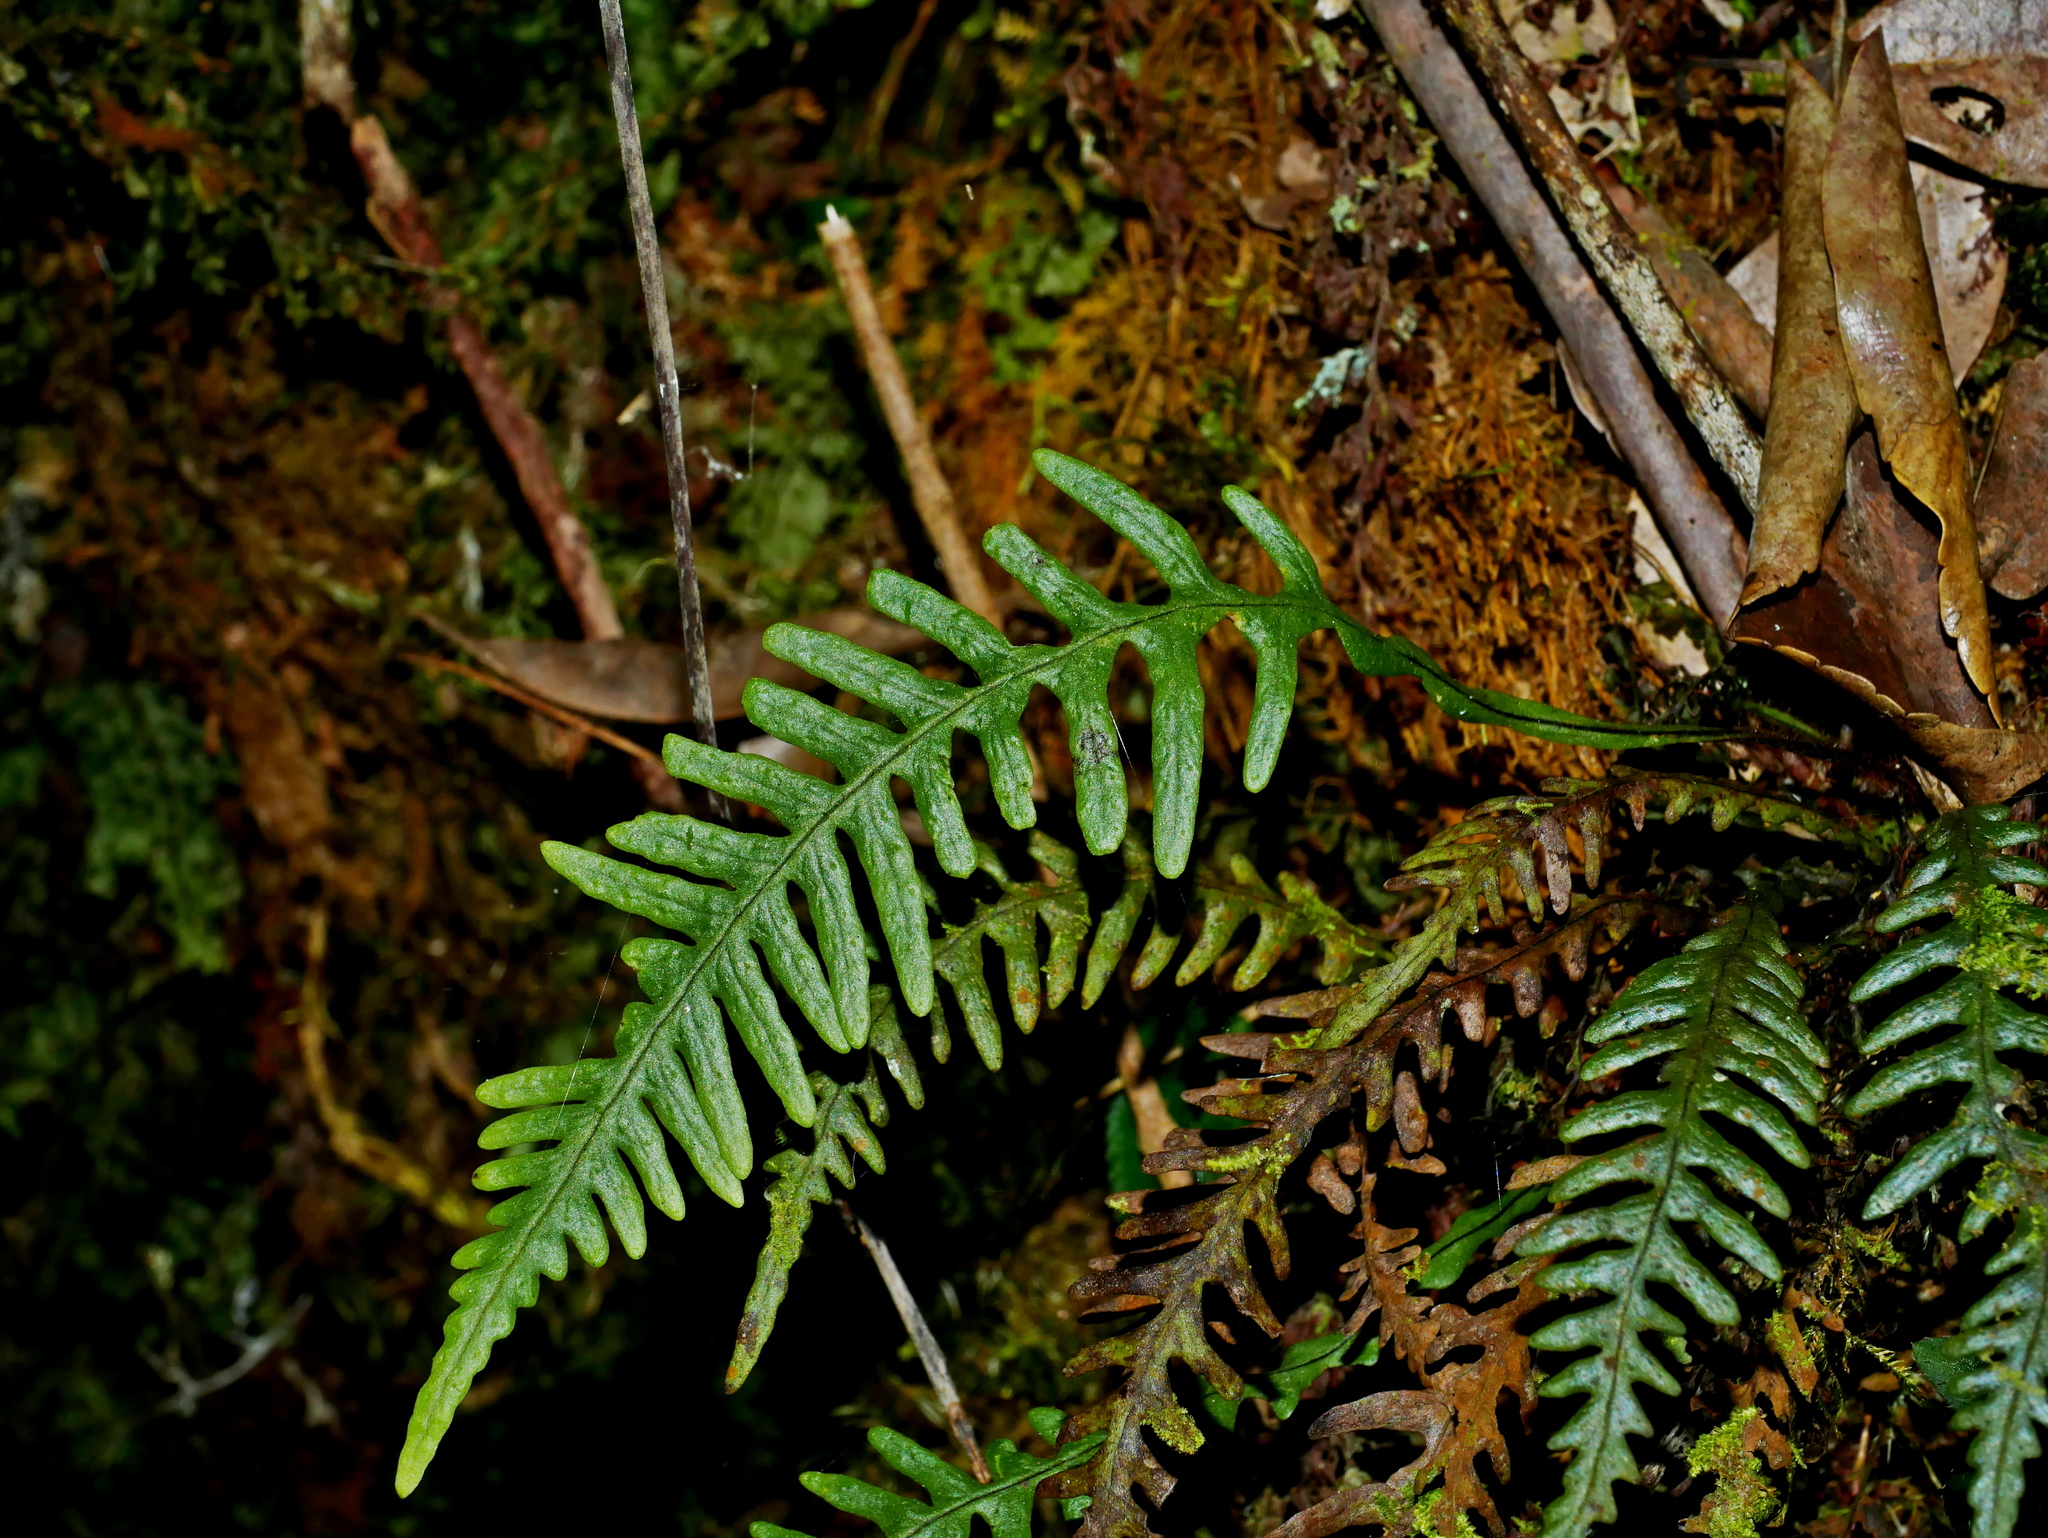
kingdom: Plantae
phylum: Tracheophyta
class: Polypodiopsida
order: Polypodiales
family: Polypodiaceae
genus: Oreogrammitis
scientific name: Oreogrammitis curtisii
